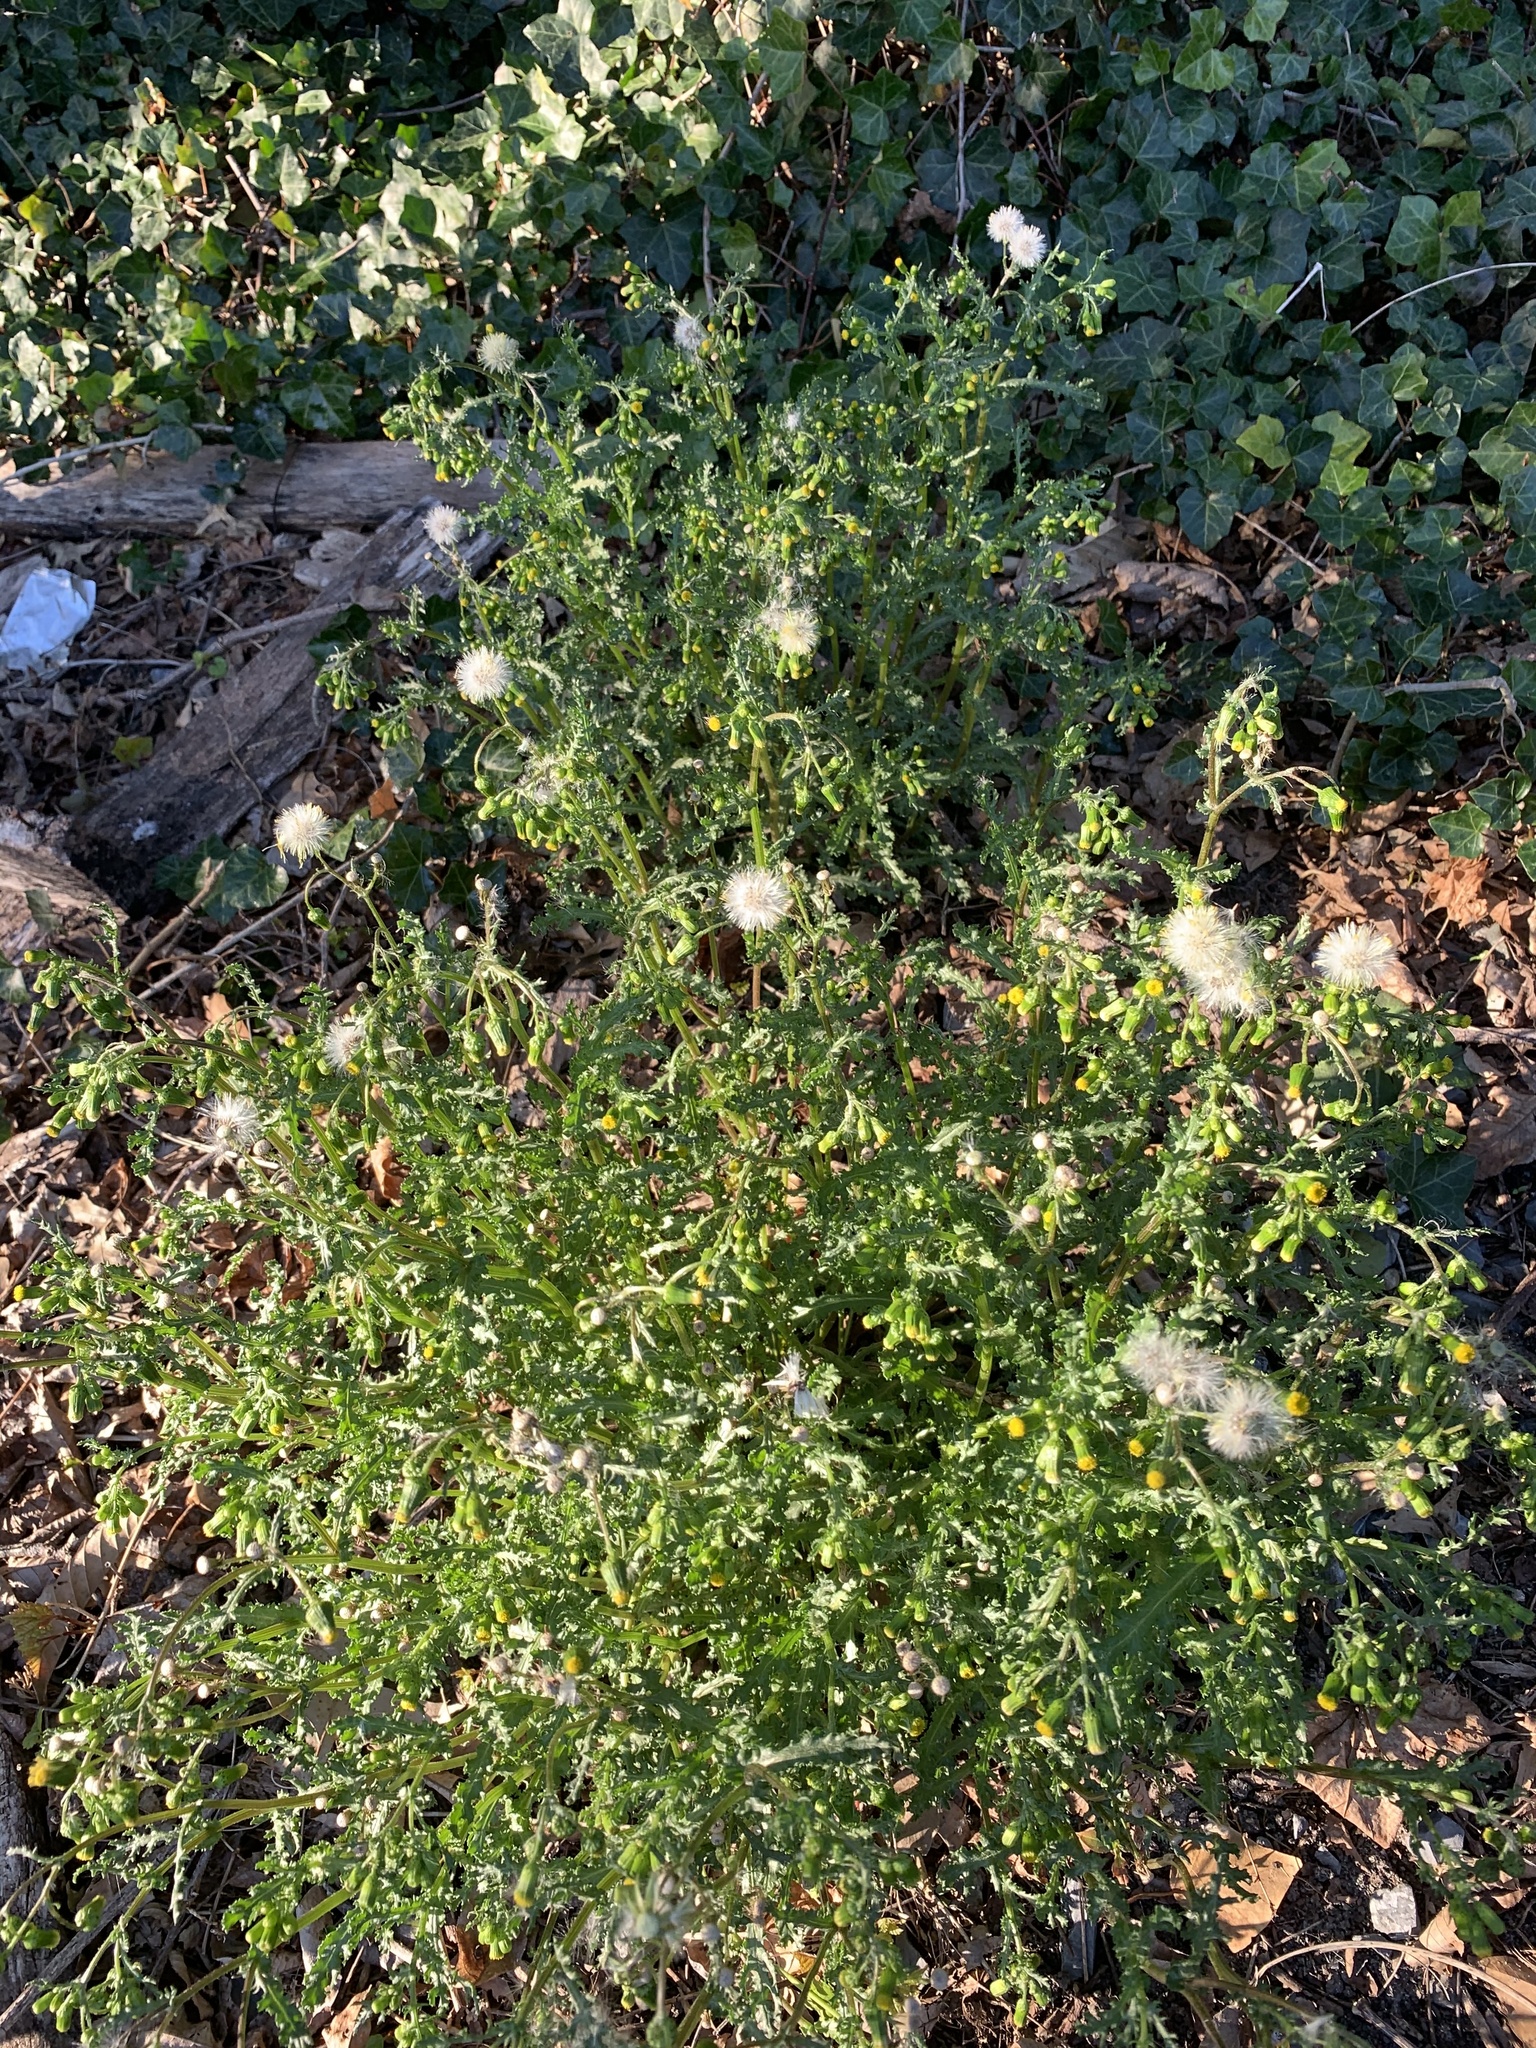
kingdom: Plantae
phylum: Tracheophyta
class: Magnoliopsida
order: Asterales
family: Asteraceae
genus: Senecio
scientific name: Senecio vulgaris
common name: Old-man-in-the-spring
